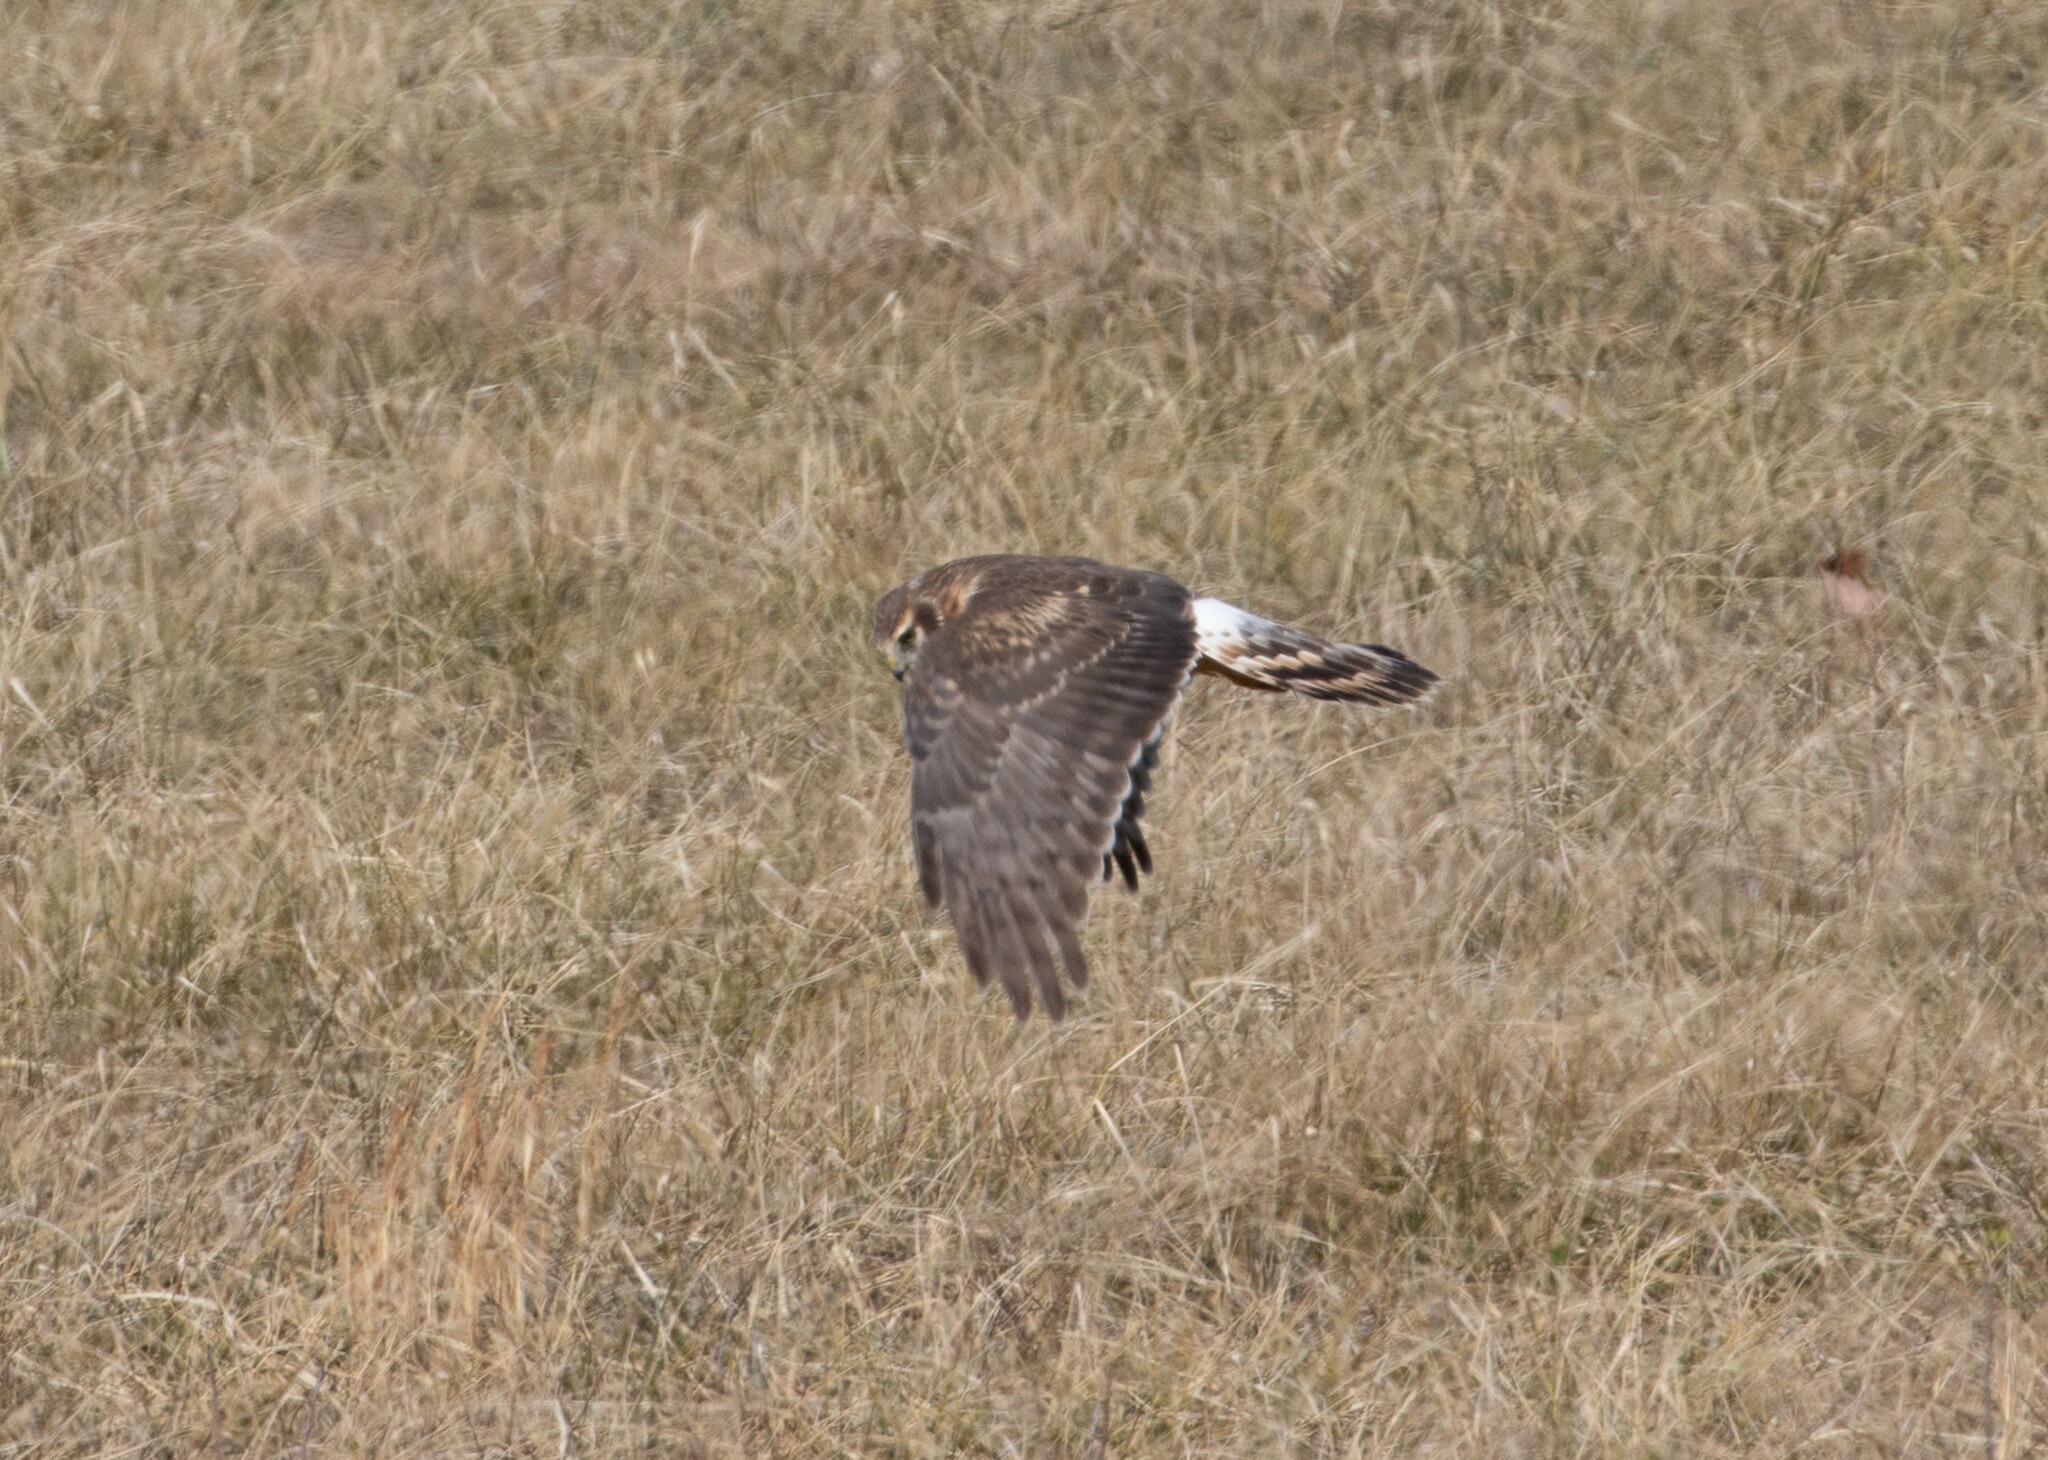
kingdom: Animalia
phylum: Chordata
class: Aves
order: Accipitriformes
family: Accipitridae
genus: Circus
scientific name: Circus cyaneus
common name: Hen harrier
